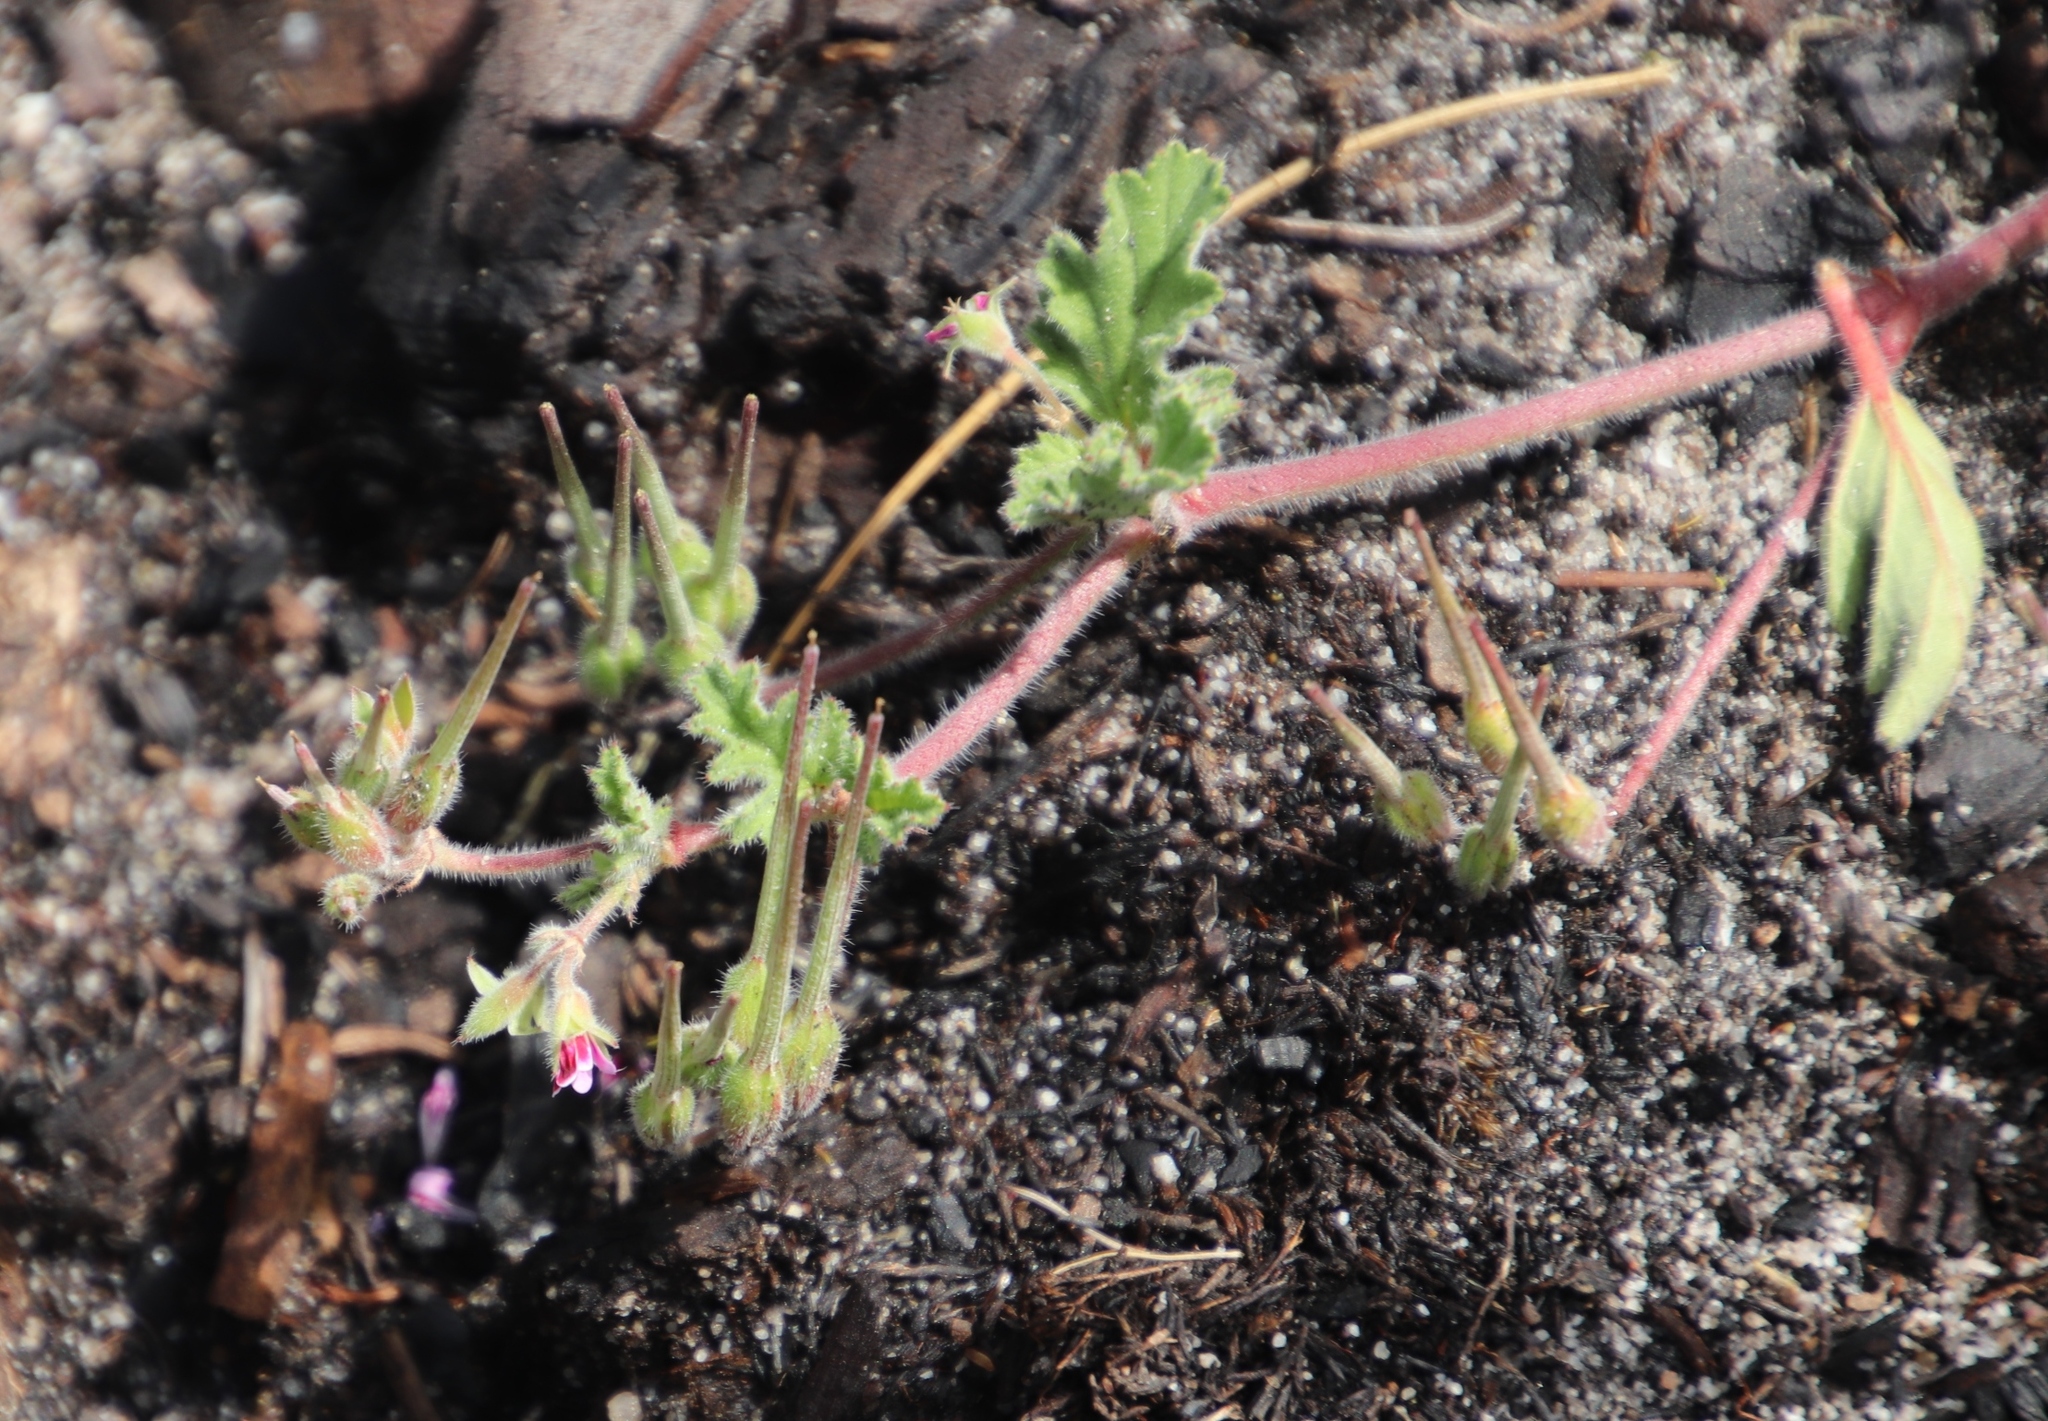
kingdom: Plantae
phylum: Tracheophyta
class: Magnoliopsida
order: Geraniales
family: Geraniaceae
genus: Pelargonium
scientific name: Pelargonium althaeoides
